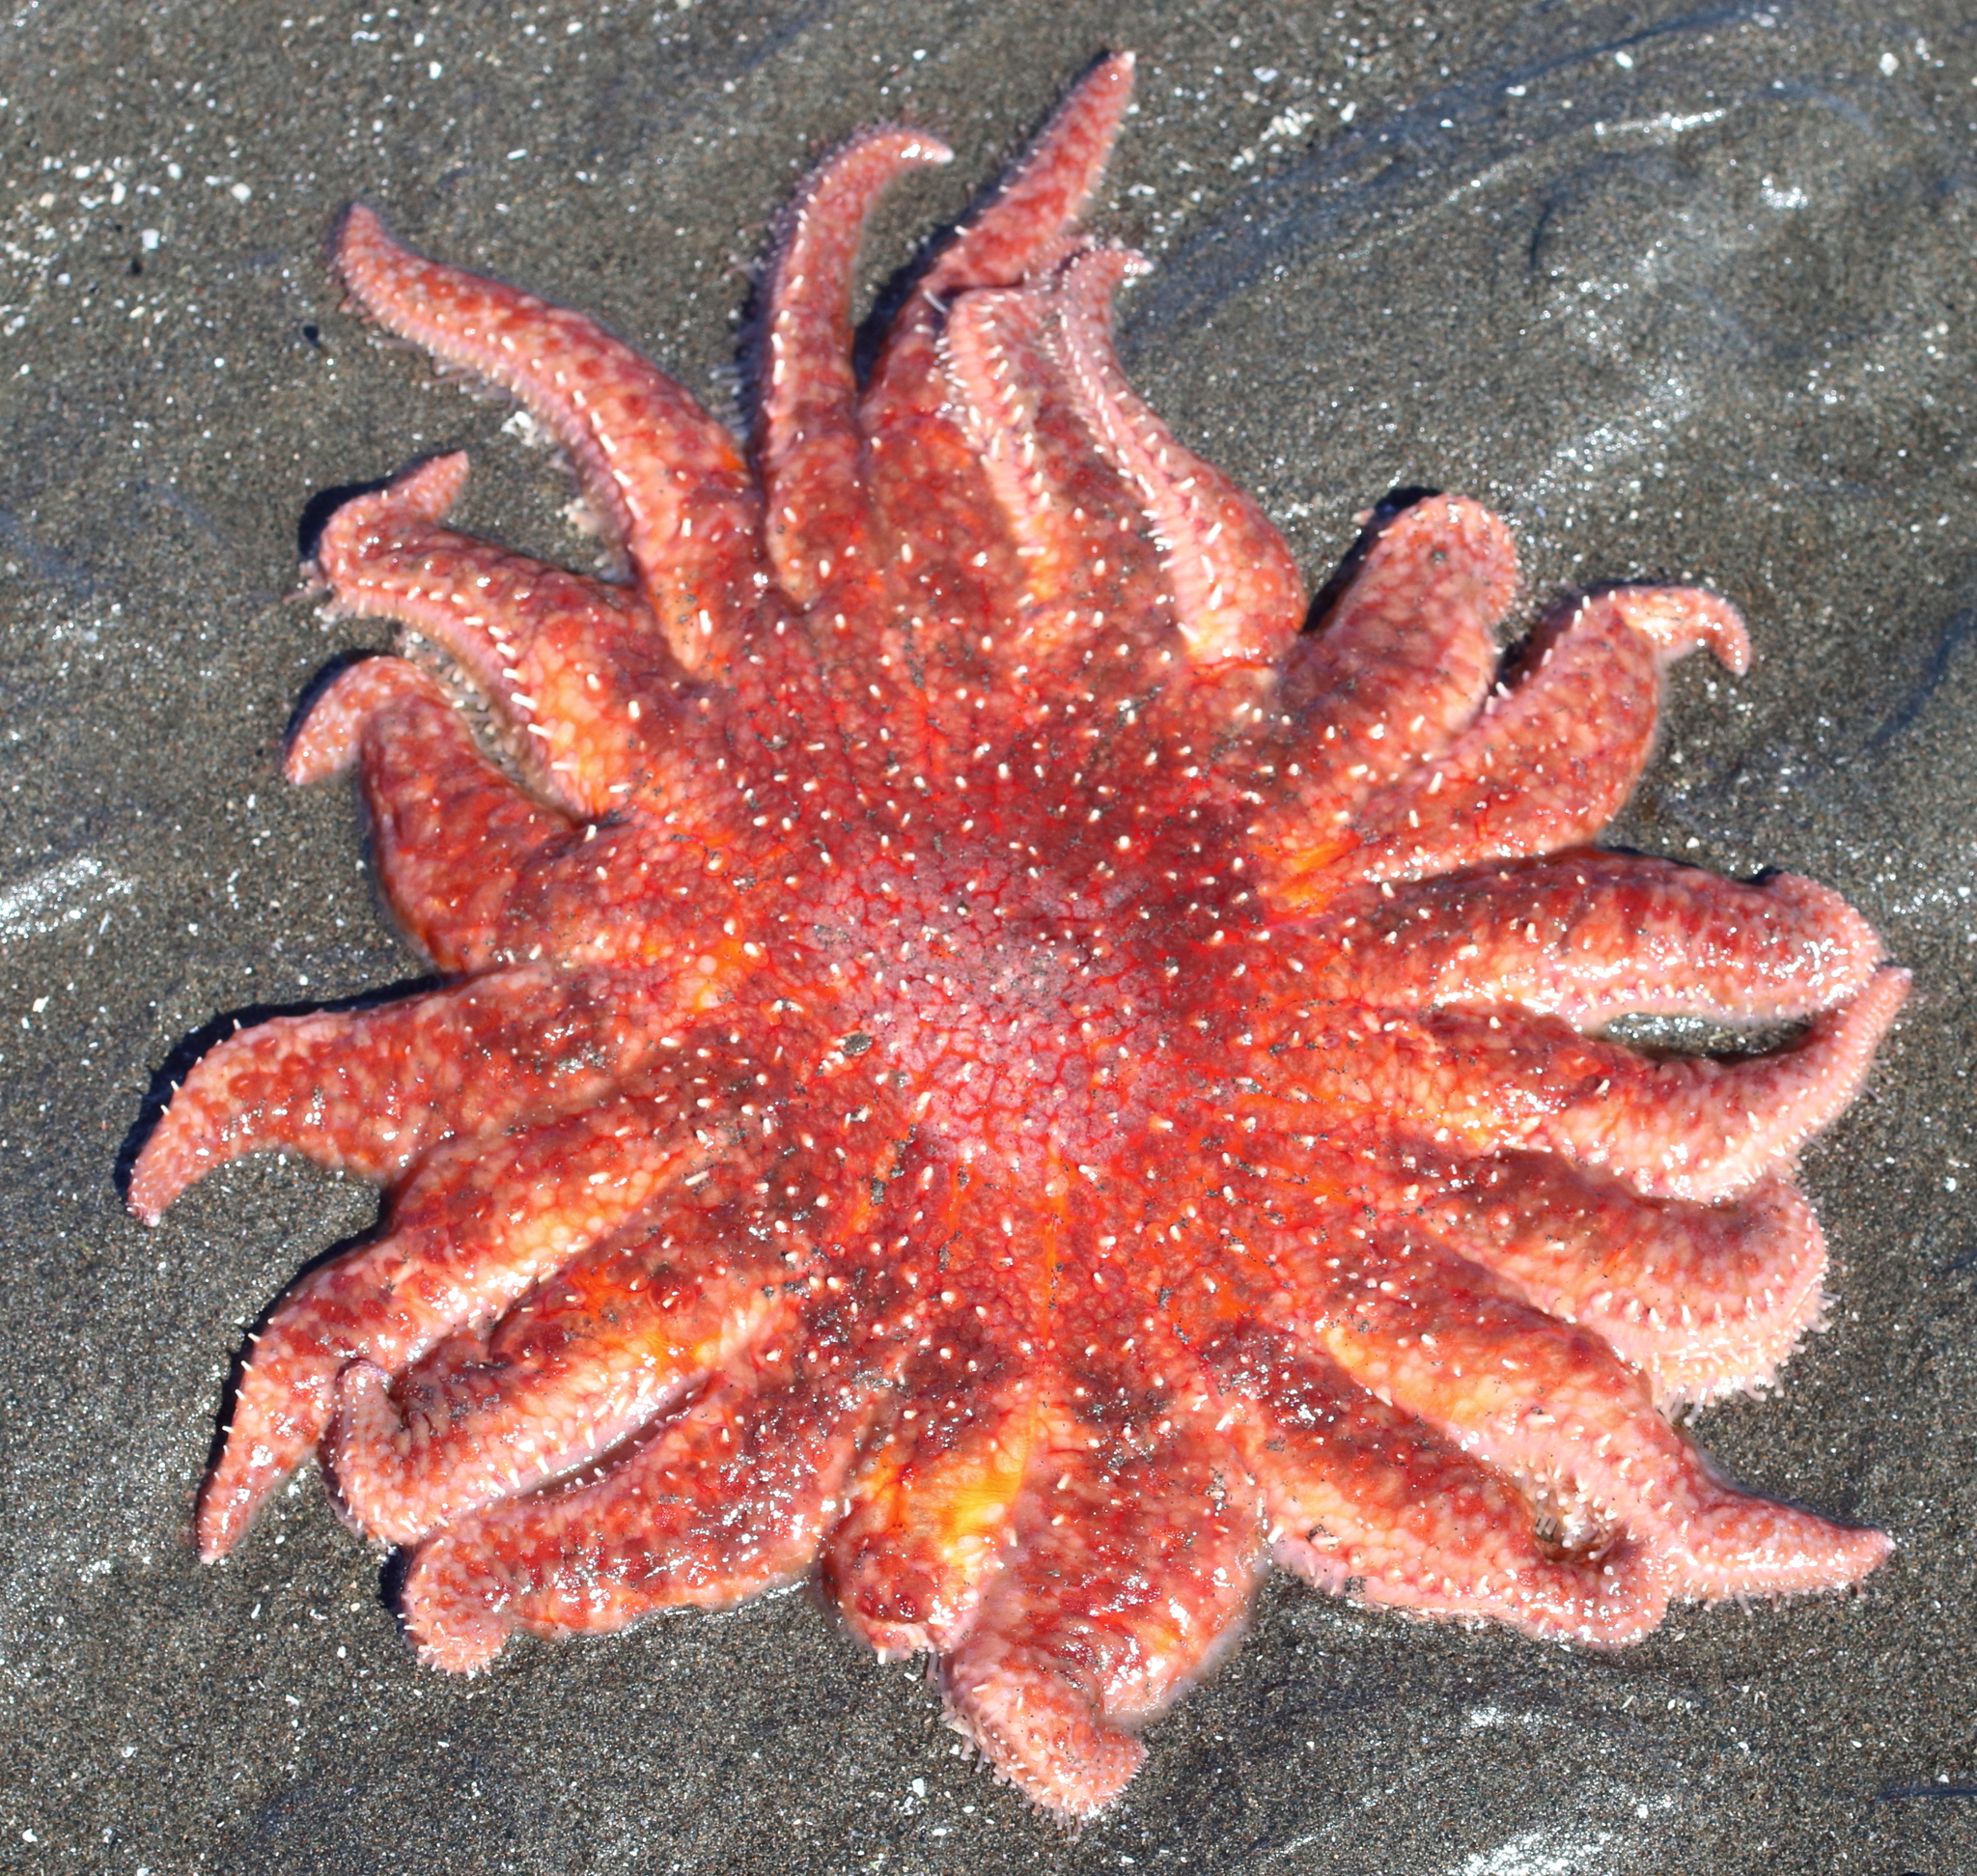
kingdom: Animalia
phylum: Echinodermata
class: Asteroidea
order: Forcipulatida
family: Asteriidae
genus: Pycnopodia
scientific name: Pycnopodia helianthoides
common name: Rag mop
